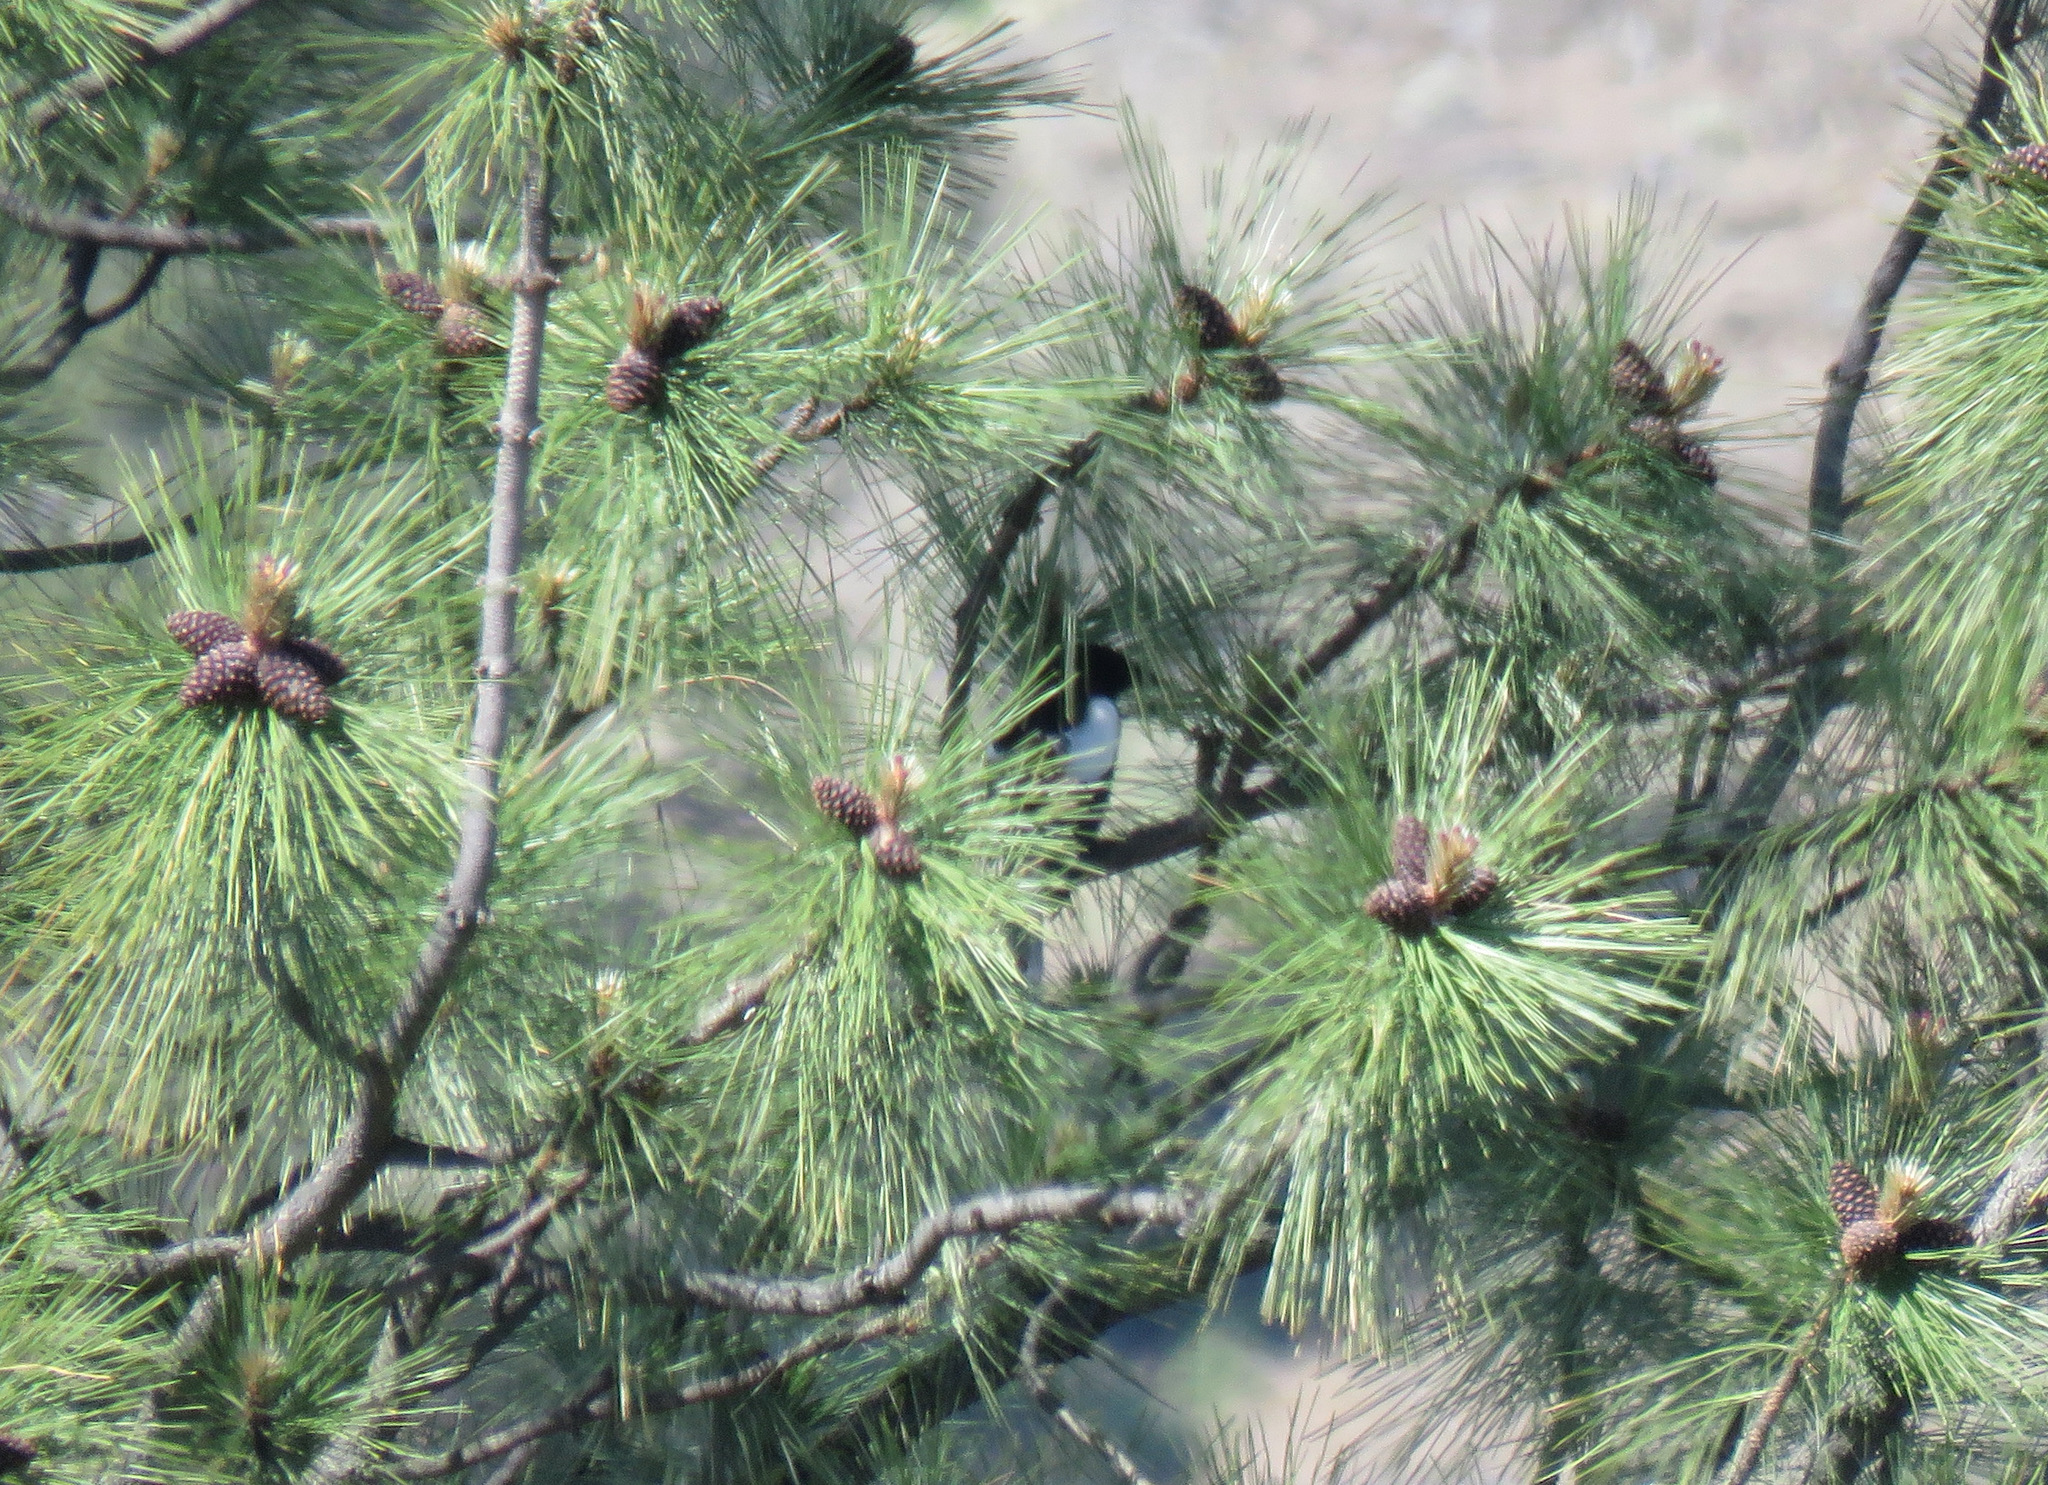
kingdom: Animalia
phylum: Chordata
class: Aves
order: Passeriformes
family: Corvidae
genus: Pica
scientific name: Pica hudsonia
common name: Black-billed magpie
